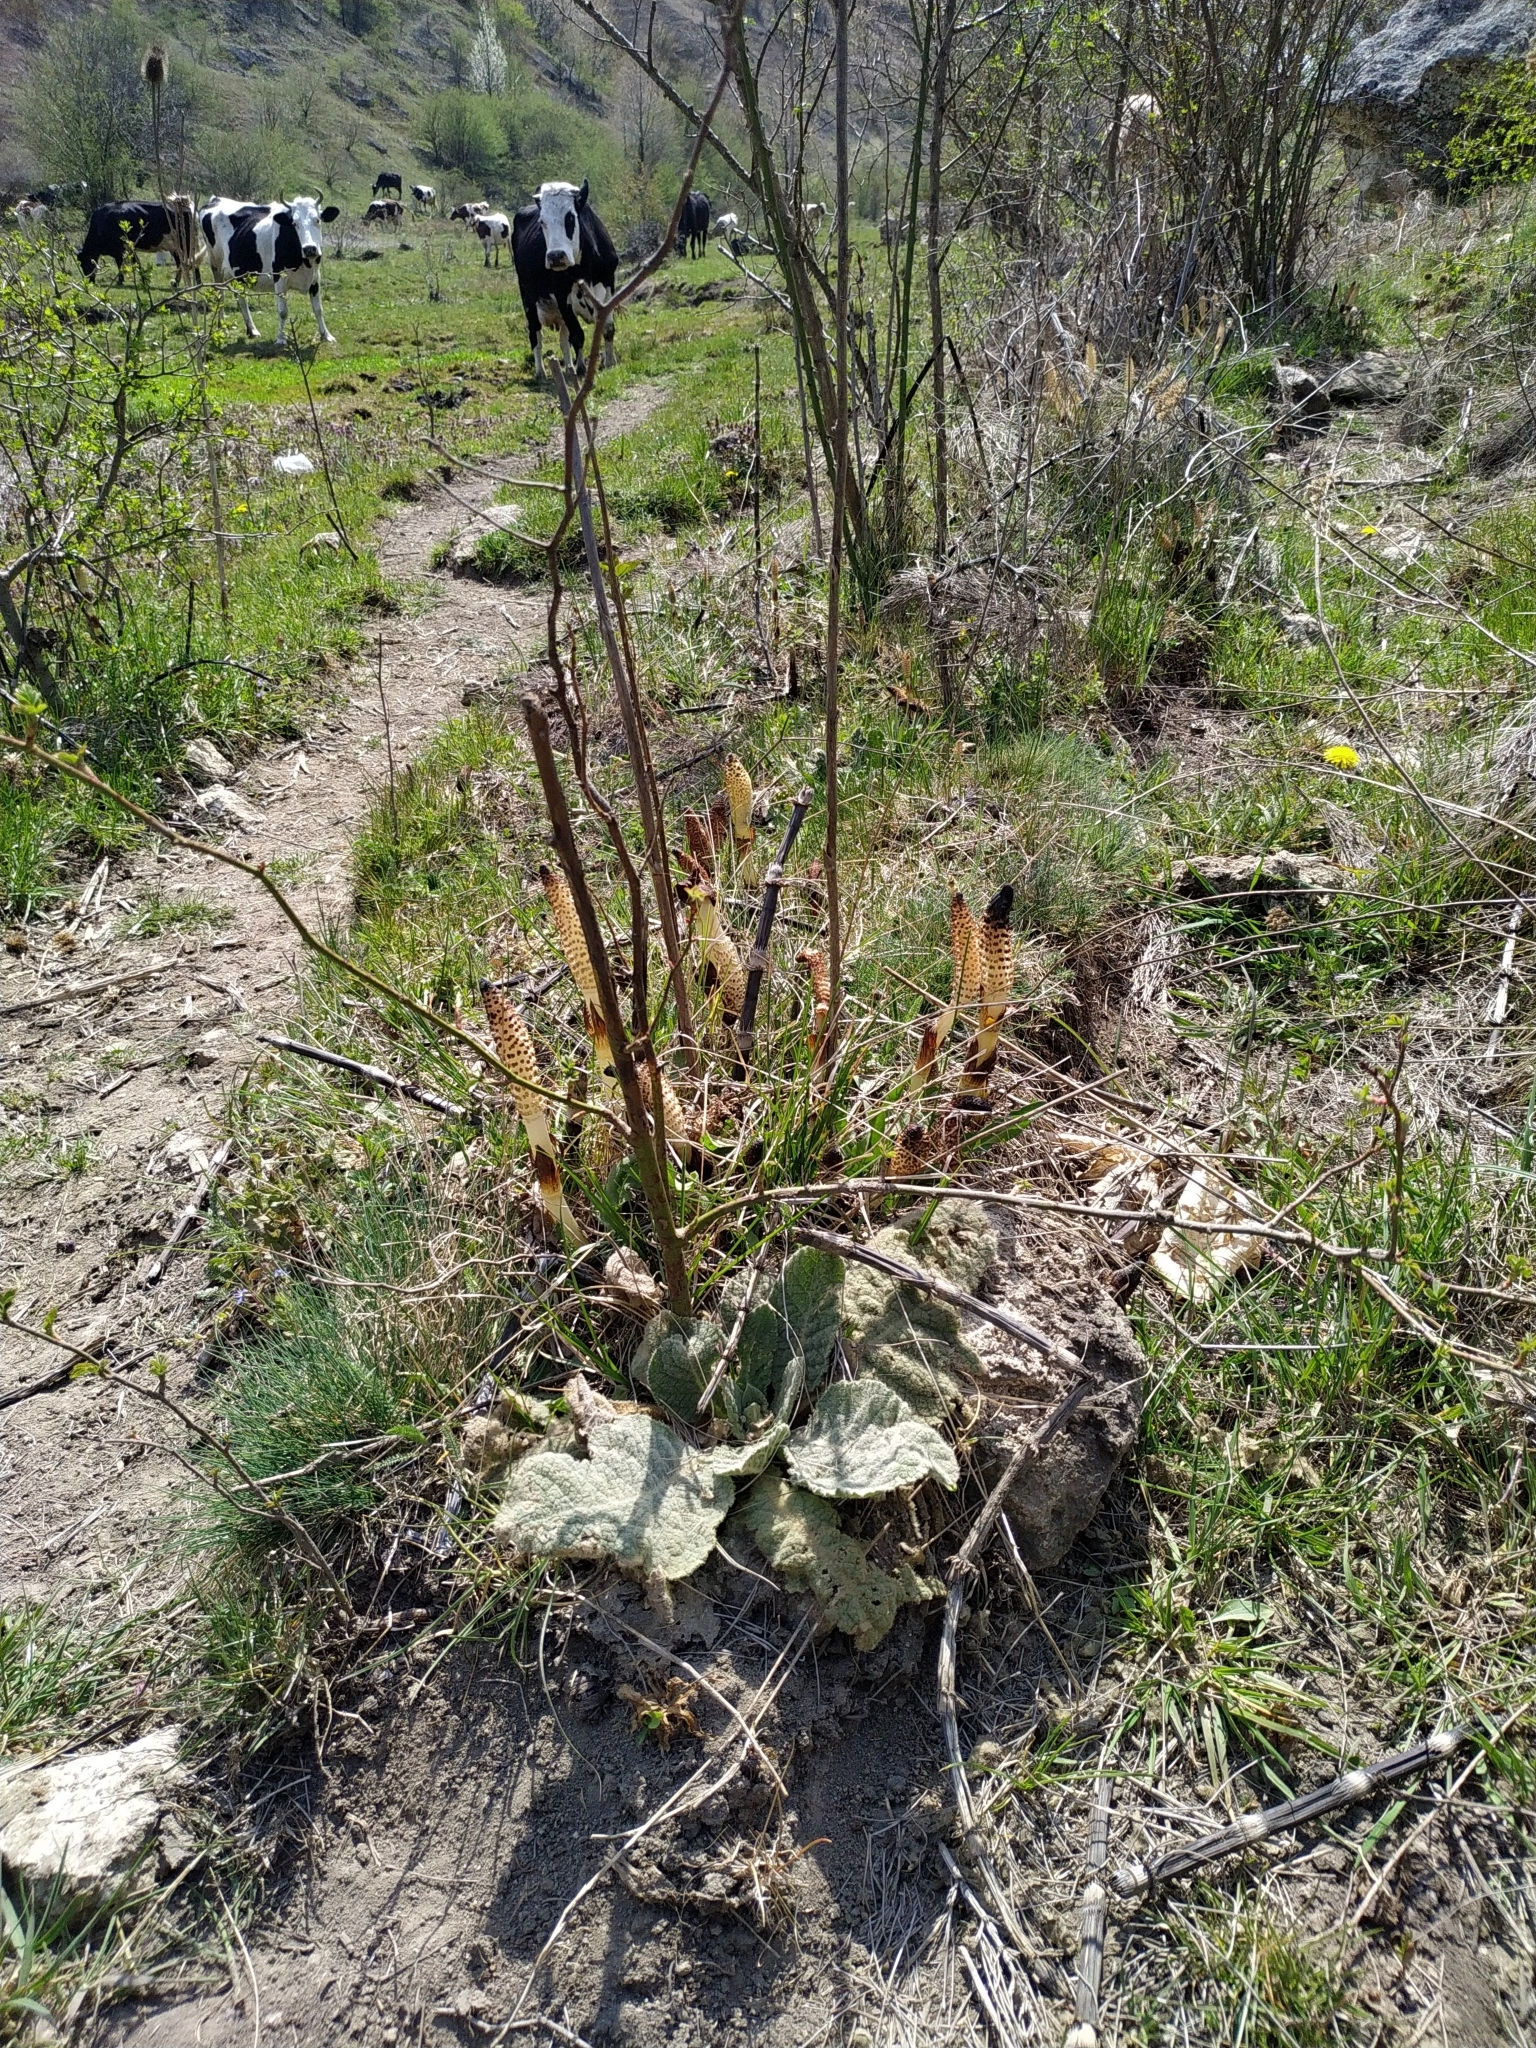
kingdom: Plantae
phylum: Tracheophyta
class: Polypodiopsida
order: Equisetales
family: Equisetaceae
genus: Equisetum
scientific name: Equisetum telmateia
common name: Great horsetail
